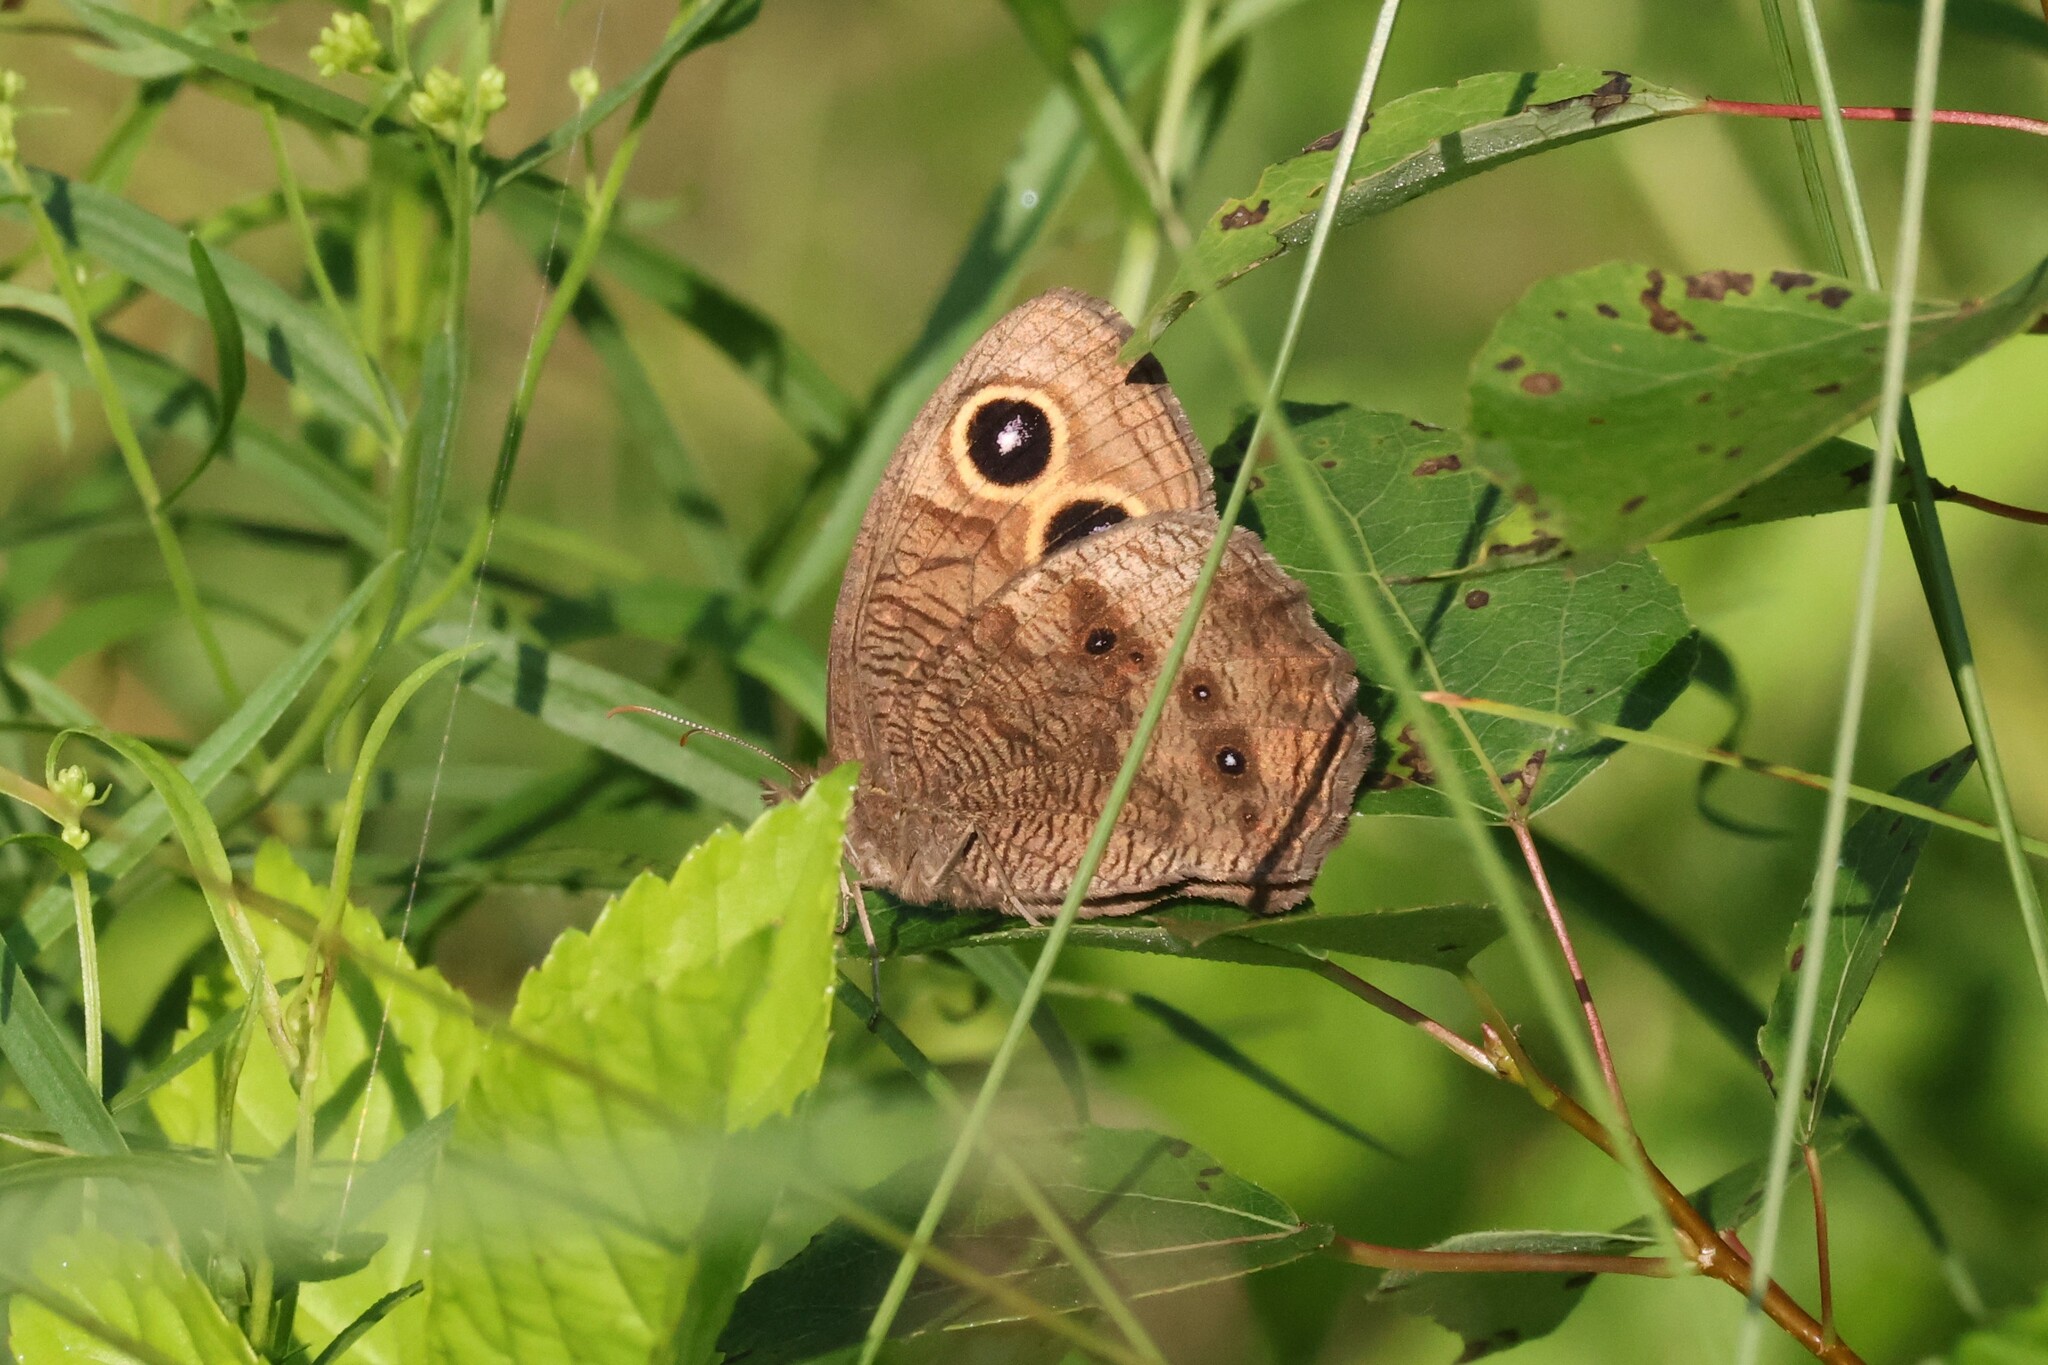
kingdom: Animalia
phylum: Arthropoda
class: Insecta
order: Lepidoptera
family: Nymphalidae
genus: Cercyonis
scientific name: Cercyonis pegala
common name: Common wood-nymph
